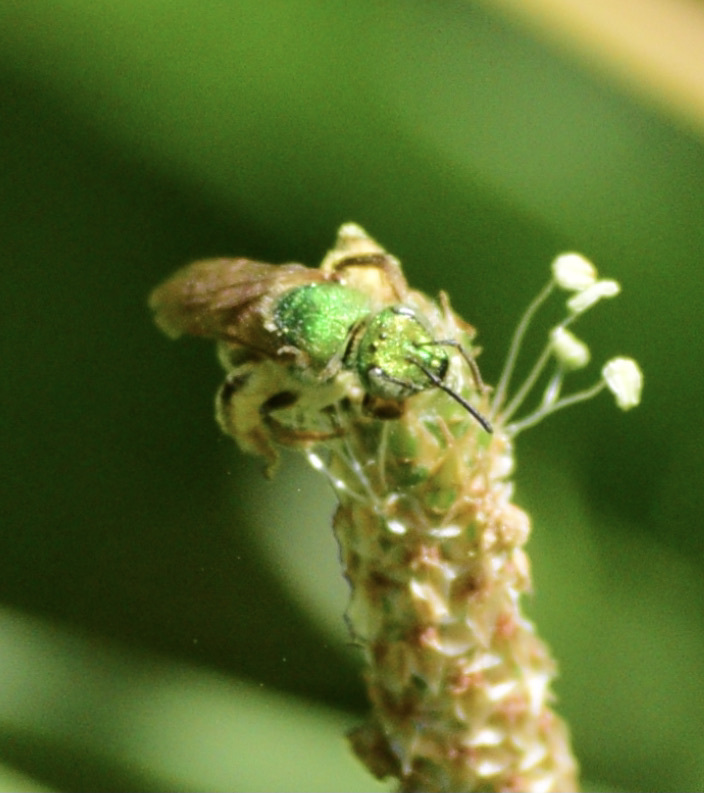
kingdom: Animalia
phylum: Arthropoda
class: Insecta
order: Hymenoptera
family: Halictidae
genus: Agapostemon
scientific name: Agapostemon virescens
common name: Bicolored striped sweat bee
